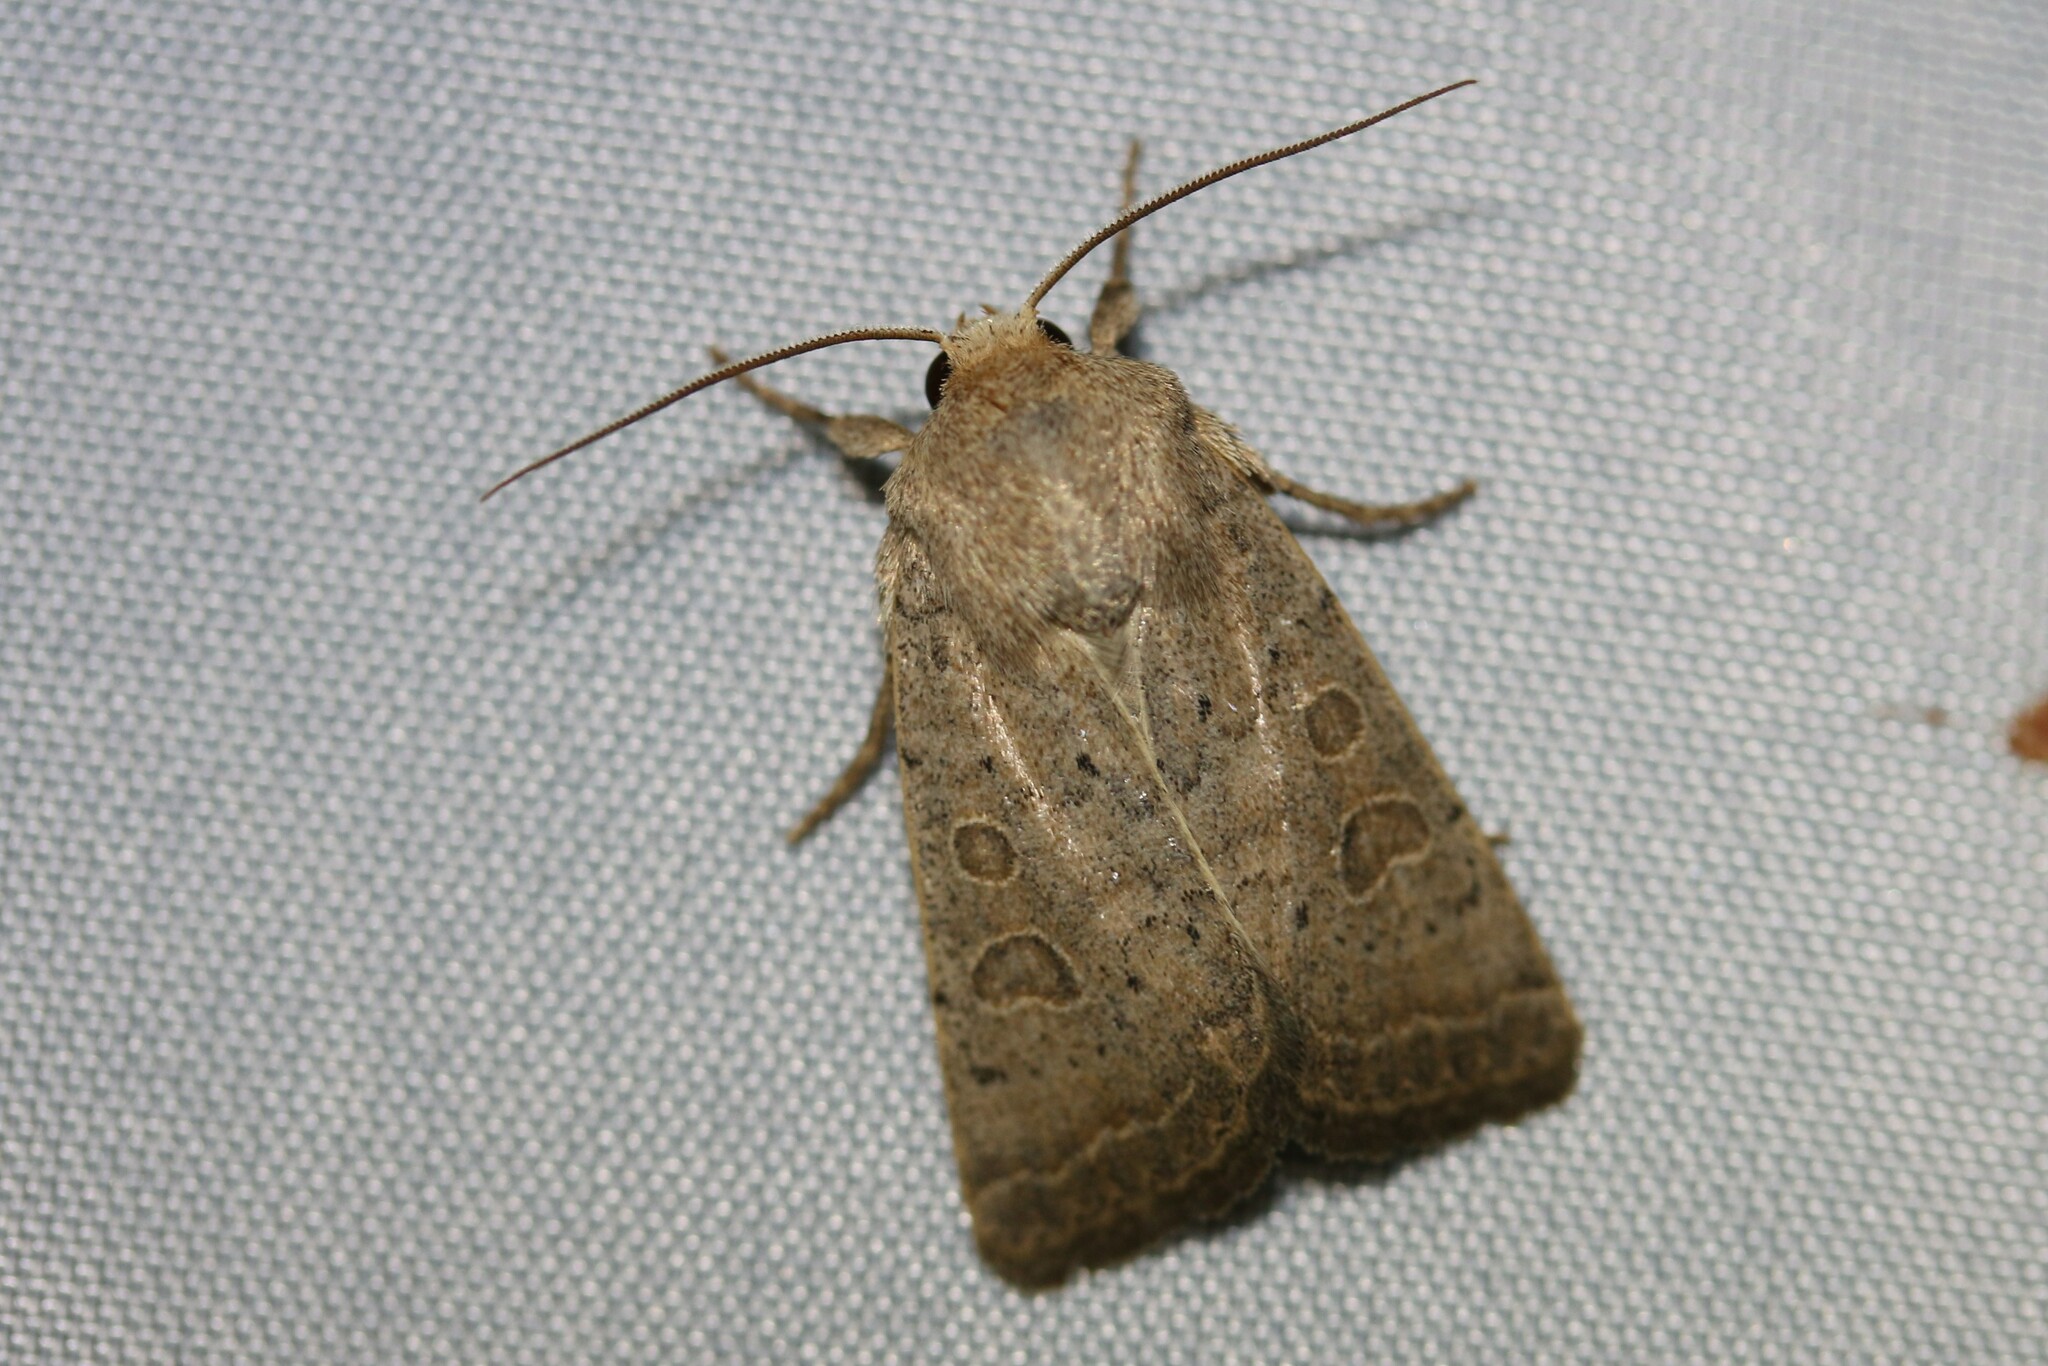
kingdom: Animalia
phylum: Arthropoda
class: Insecta
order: Lepidoptera
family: Noctuidae
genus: Hoplodrina
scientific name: Hoplodrina ambigua
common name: Vine's rustic
